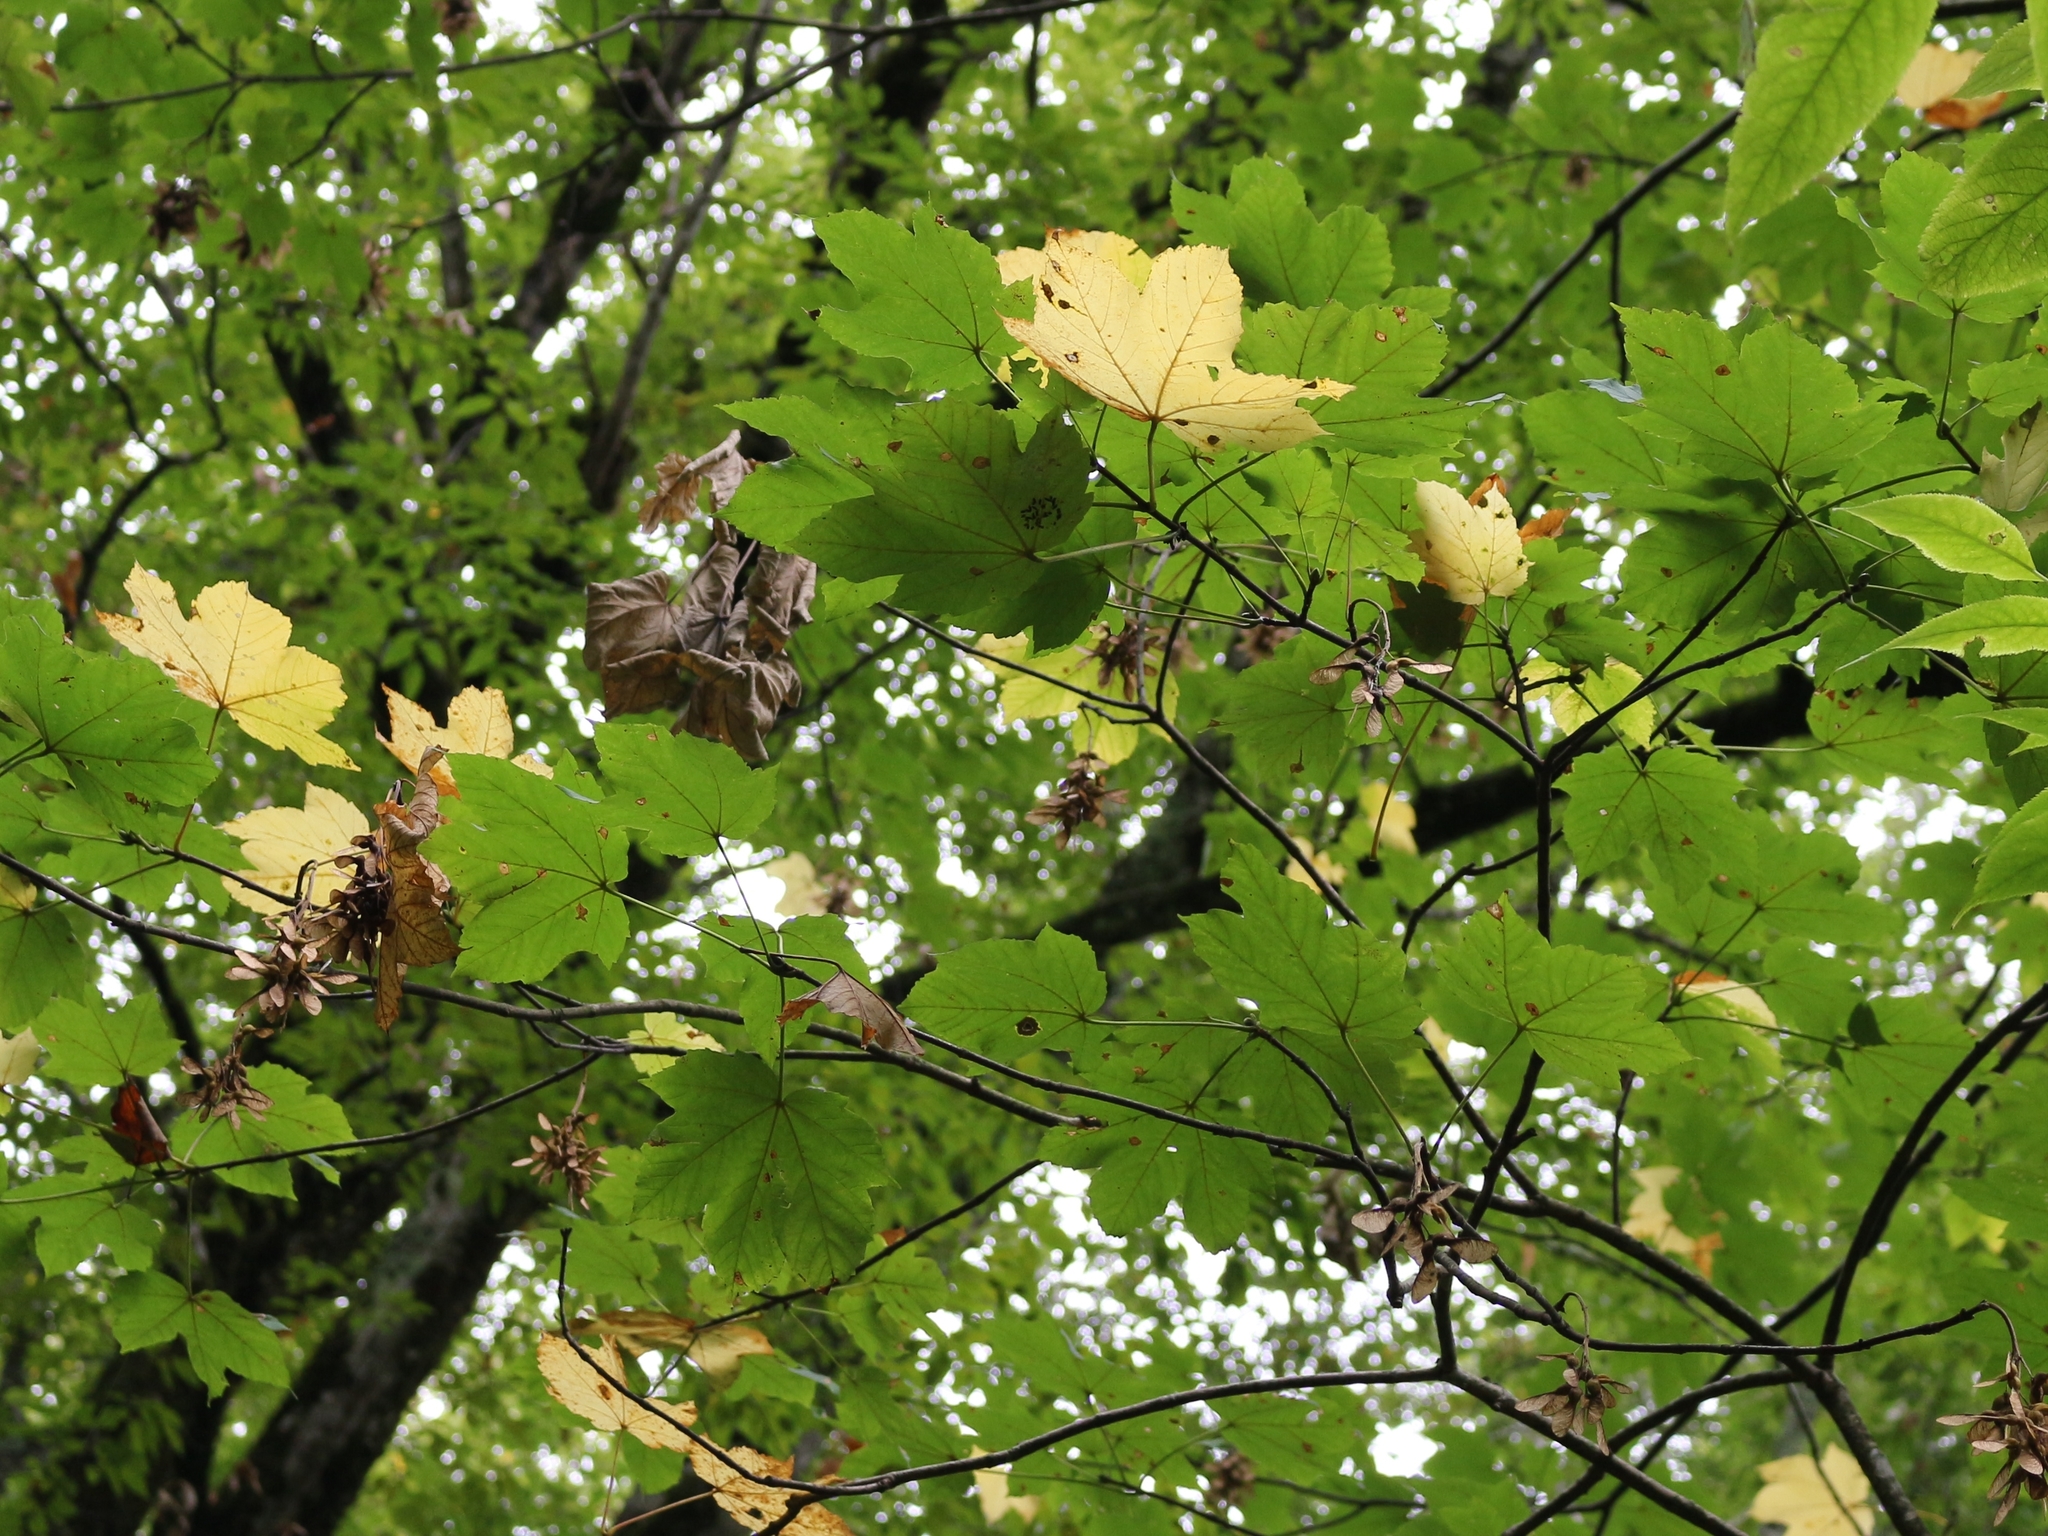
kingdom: Plantae
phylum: Tracheophyta
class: Magnoliopsida
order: Sapindales
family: Sapindaceae
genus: Acer
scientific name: Acer pseudoplatanus
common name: Sycamore
